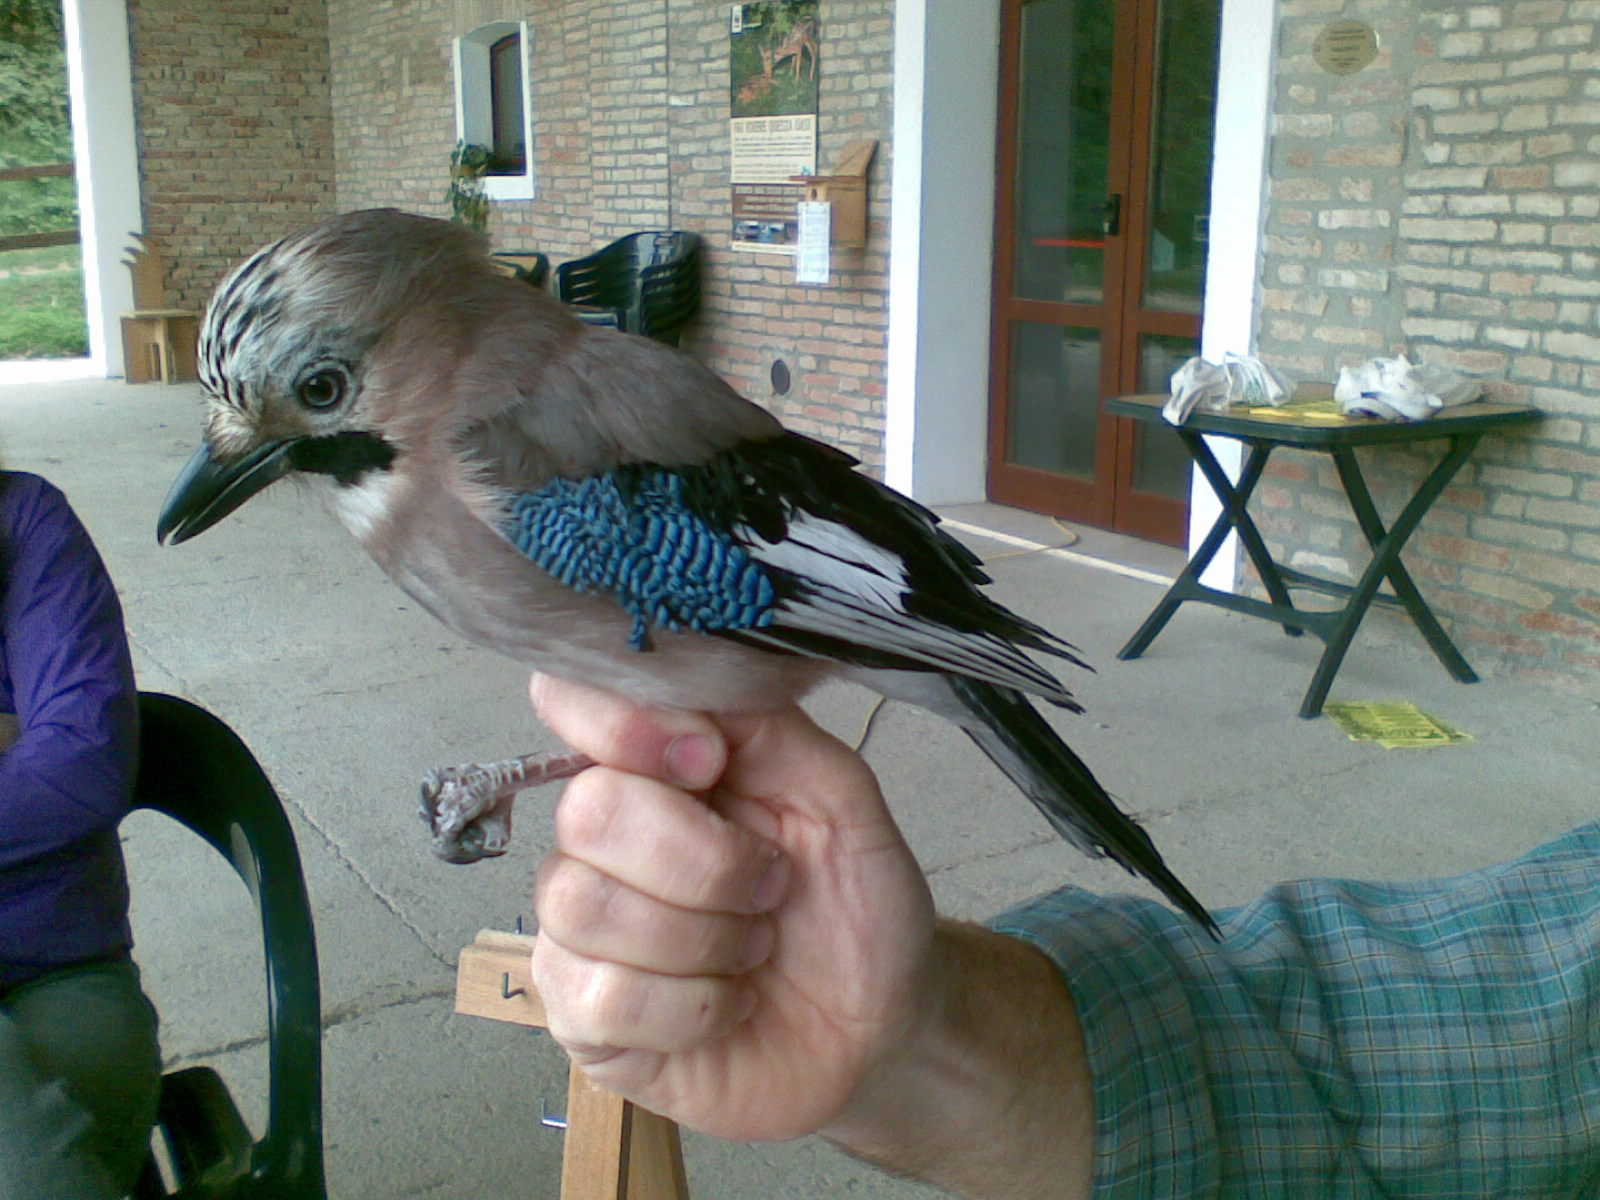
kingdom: Animalia
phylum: Chordata
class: Aves
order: Passeriformes
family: Corvidae
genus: Garrulus
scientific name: Garrulus glandarius
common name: Eurasian jay
